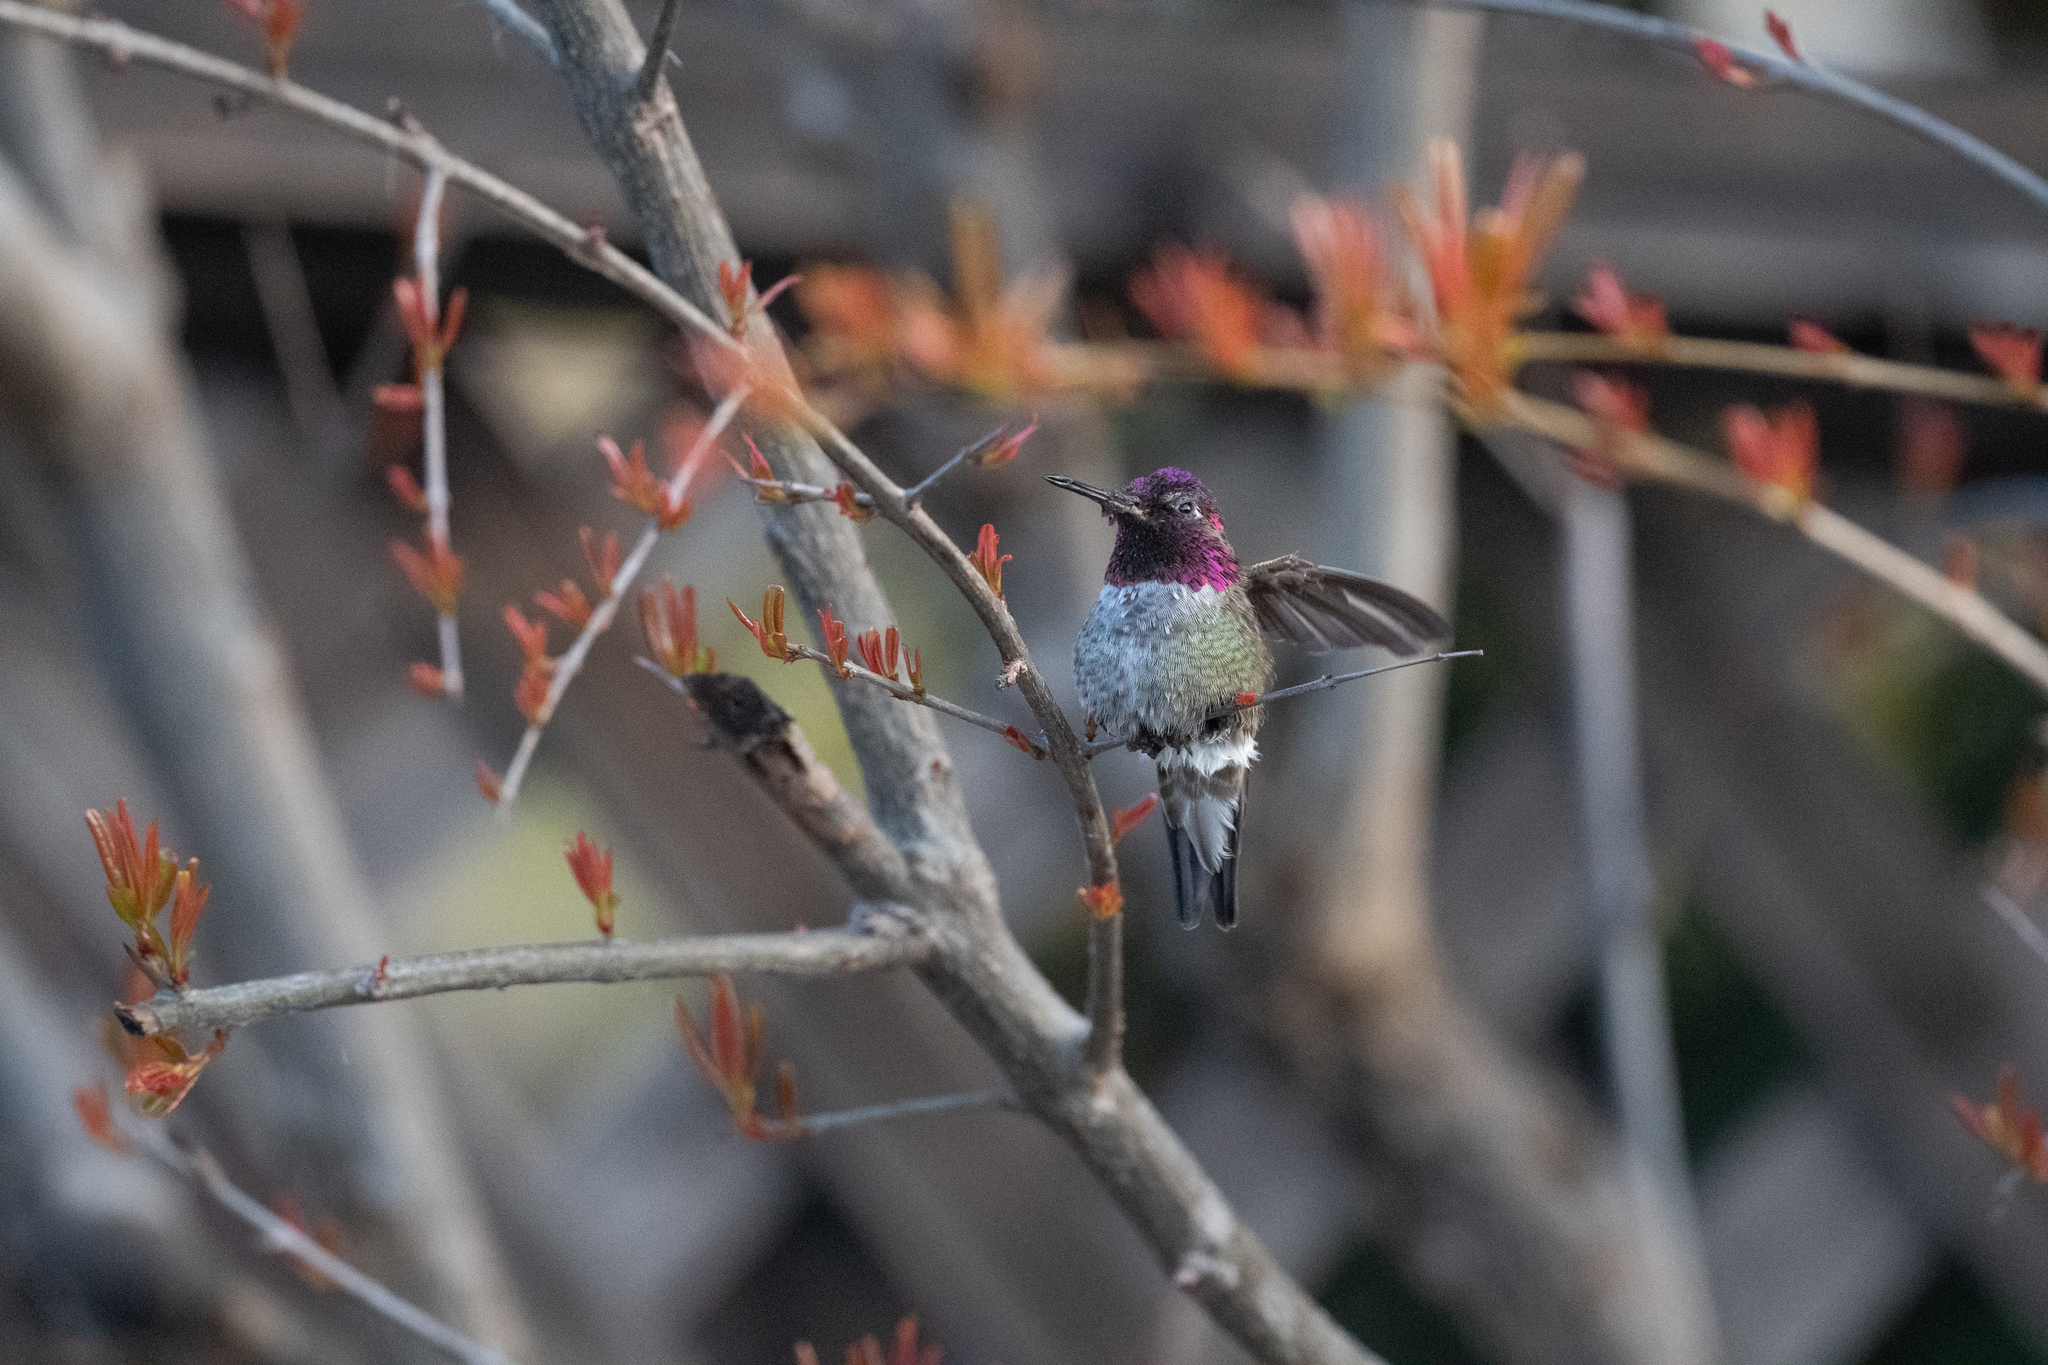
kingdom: Animalia
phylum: Chordata
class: Aves
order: Apodiformes
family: Trochilidae
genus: Calypte
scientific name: Calypte anna
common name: Anna's hummingbird
